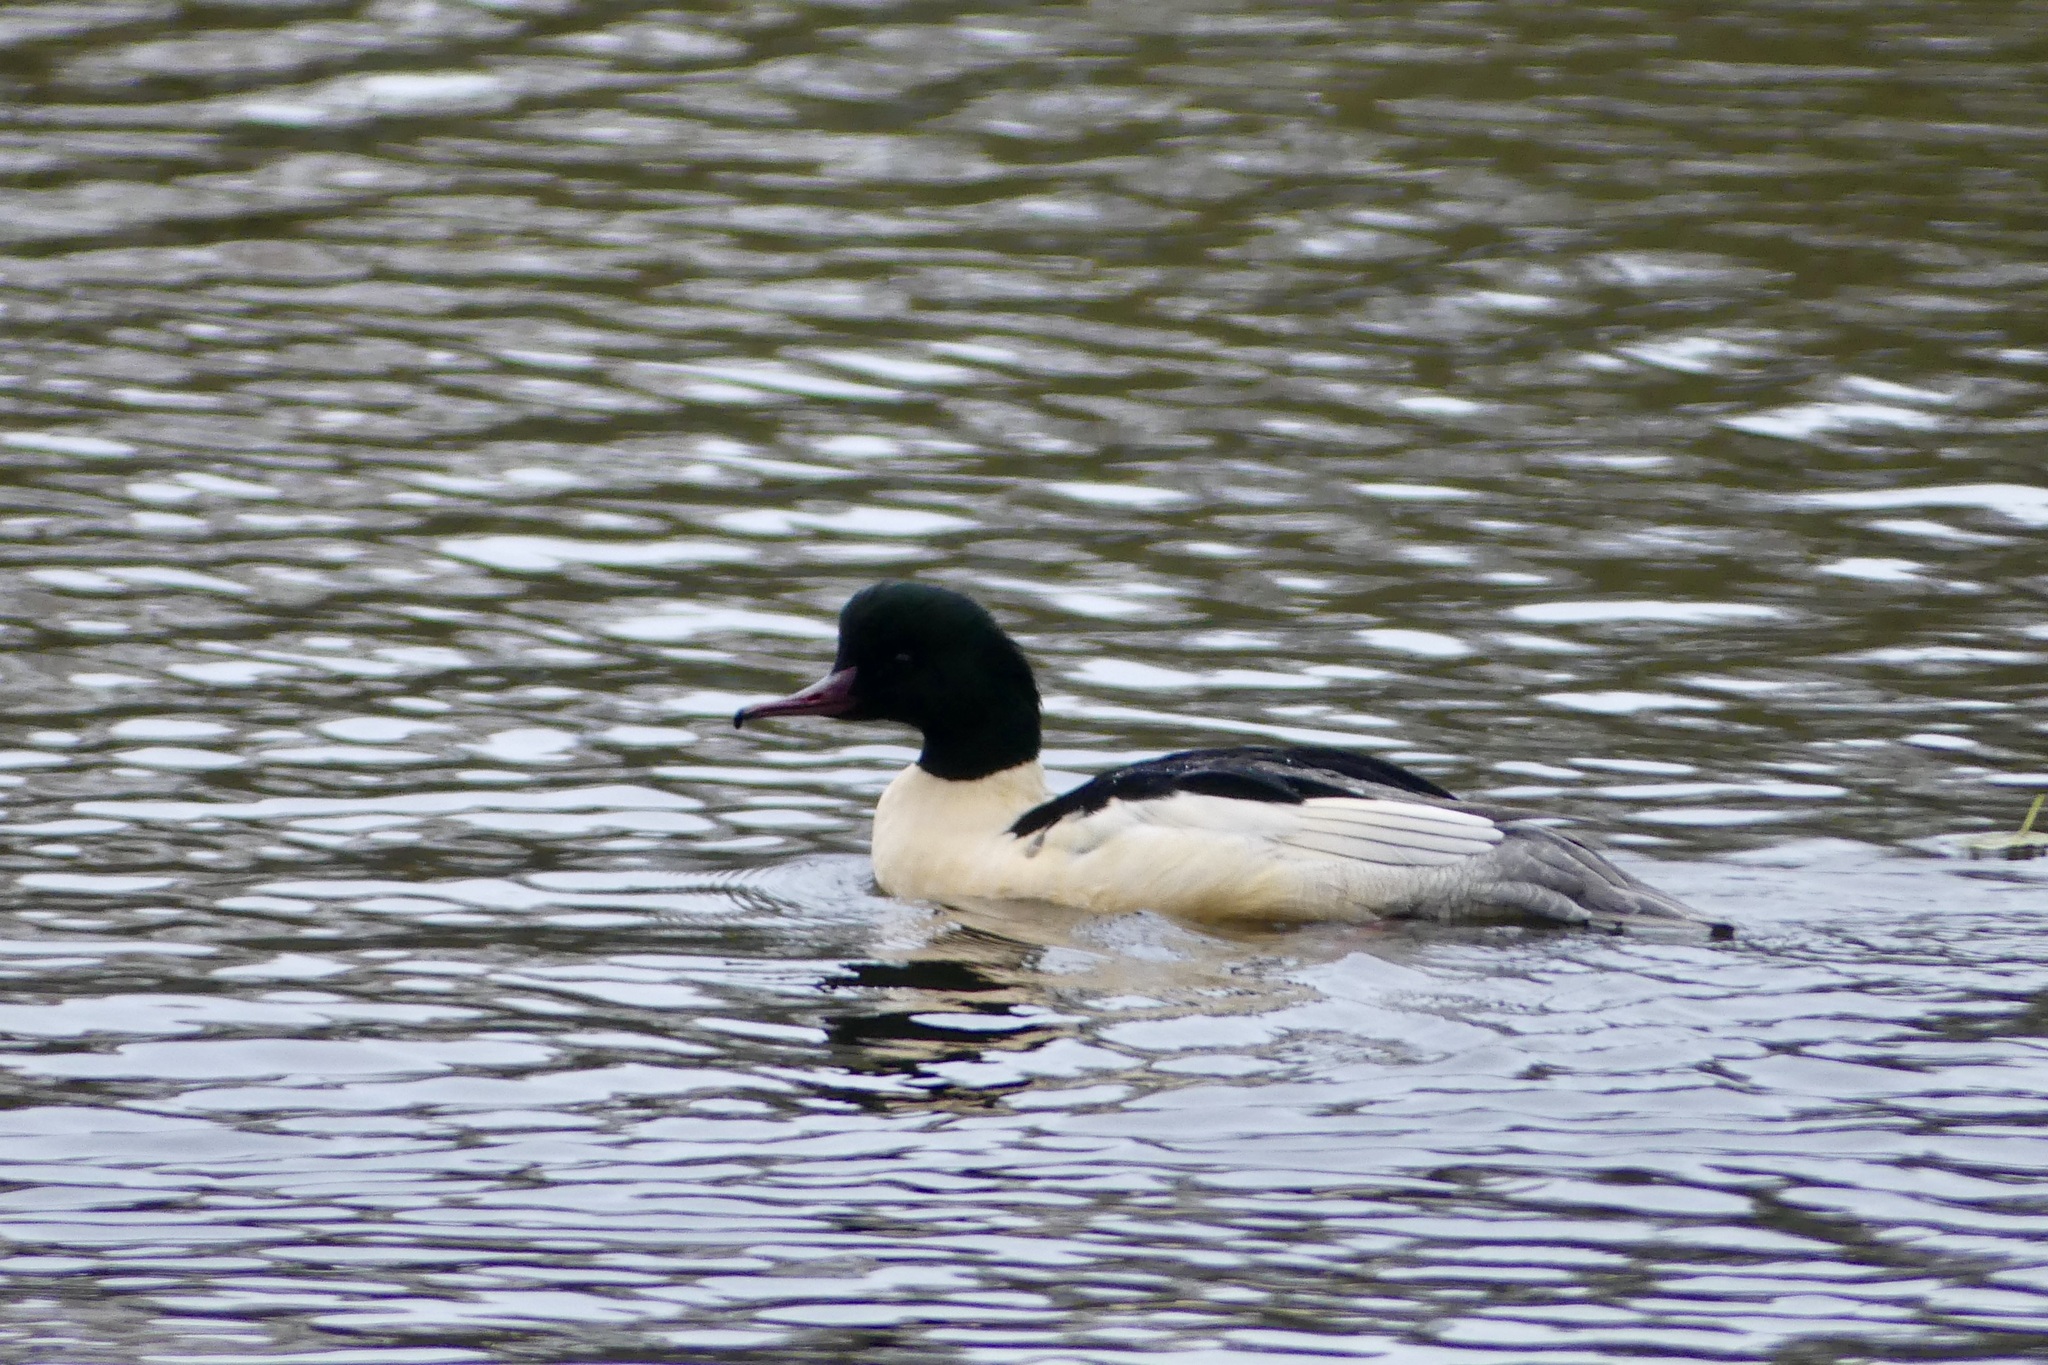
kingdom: Animalia
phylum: Chordata
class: Aves
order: Anseriformes
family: Anatidae
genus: Mergus
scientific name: Mergus merganser
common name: Common merganser
